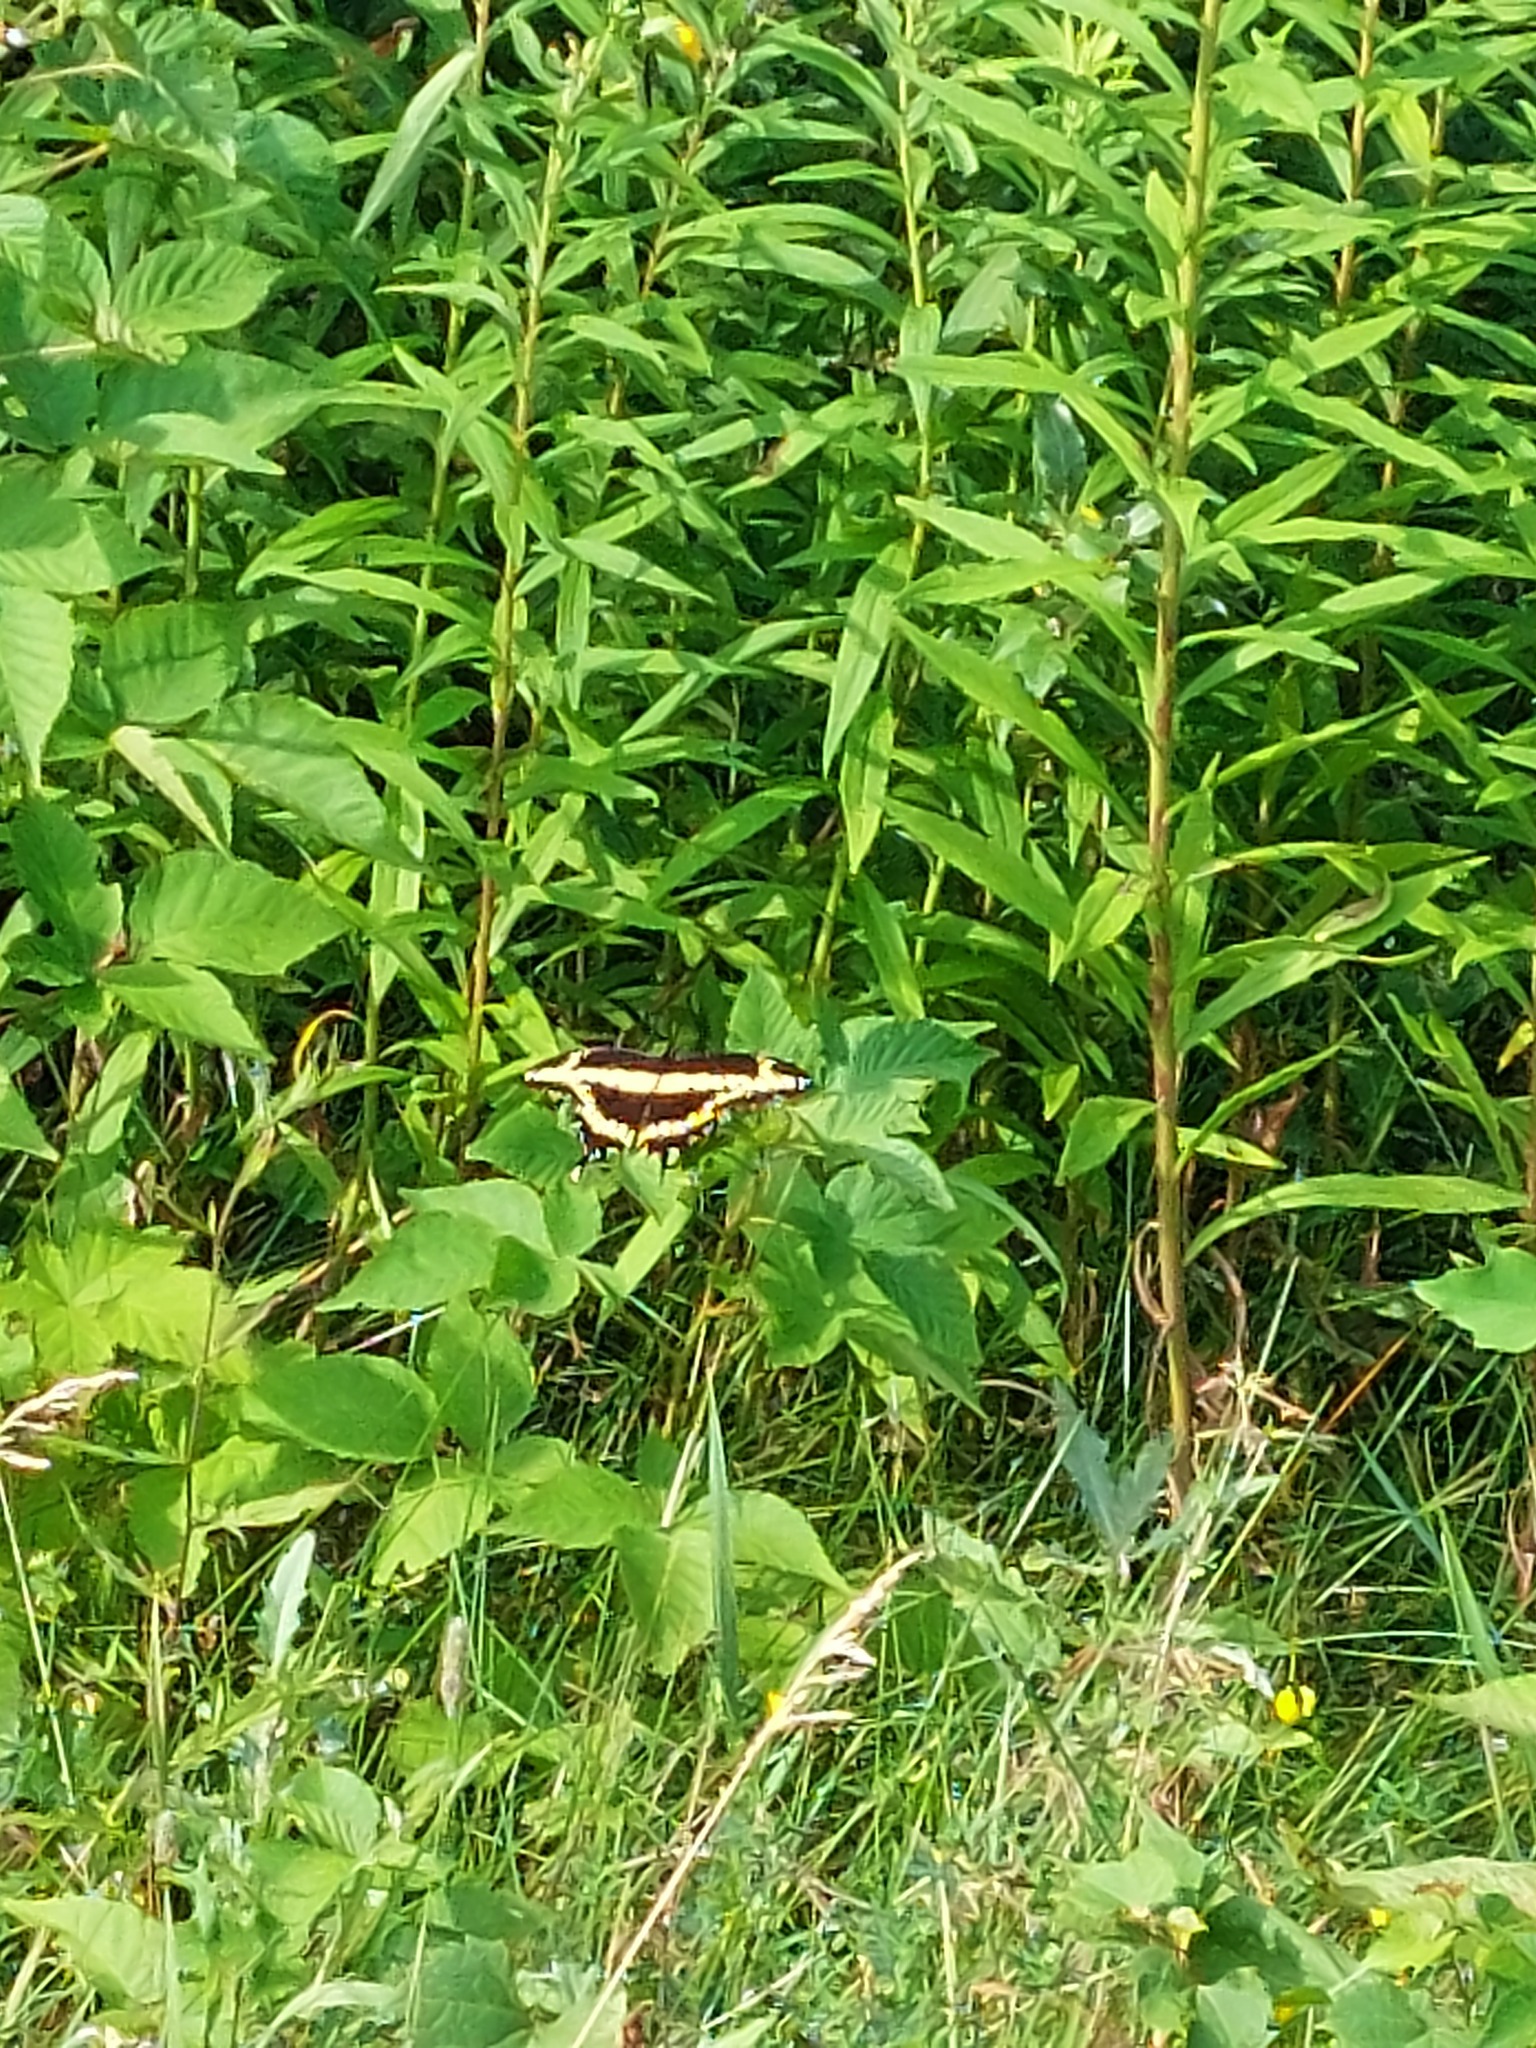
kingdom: Animalia
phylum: Arthropoda
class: Insecta
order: Lepidoptera
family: Papilionidae
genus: Papilio
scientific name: Papilio cresphontes
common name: Giant swallowtail
